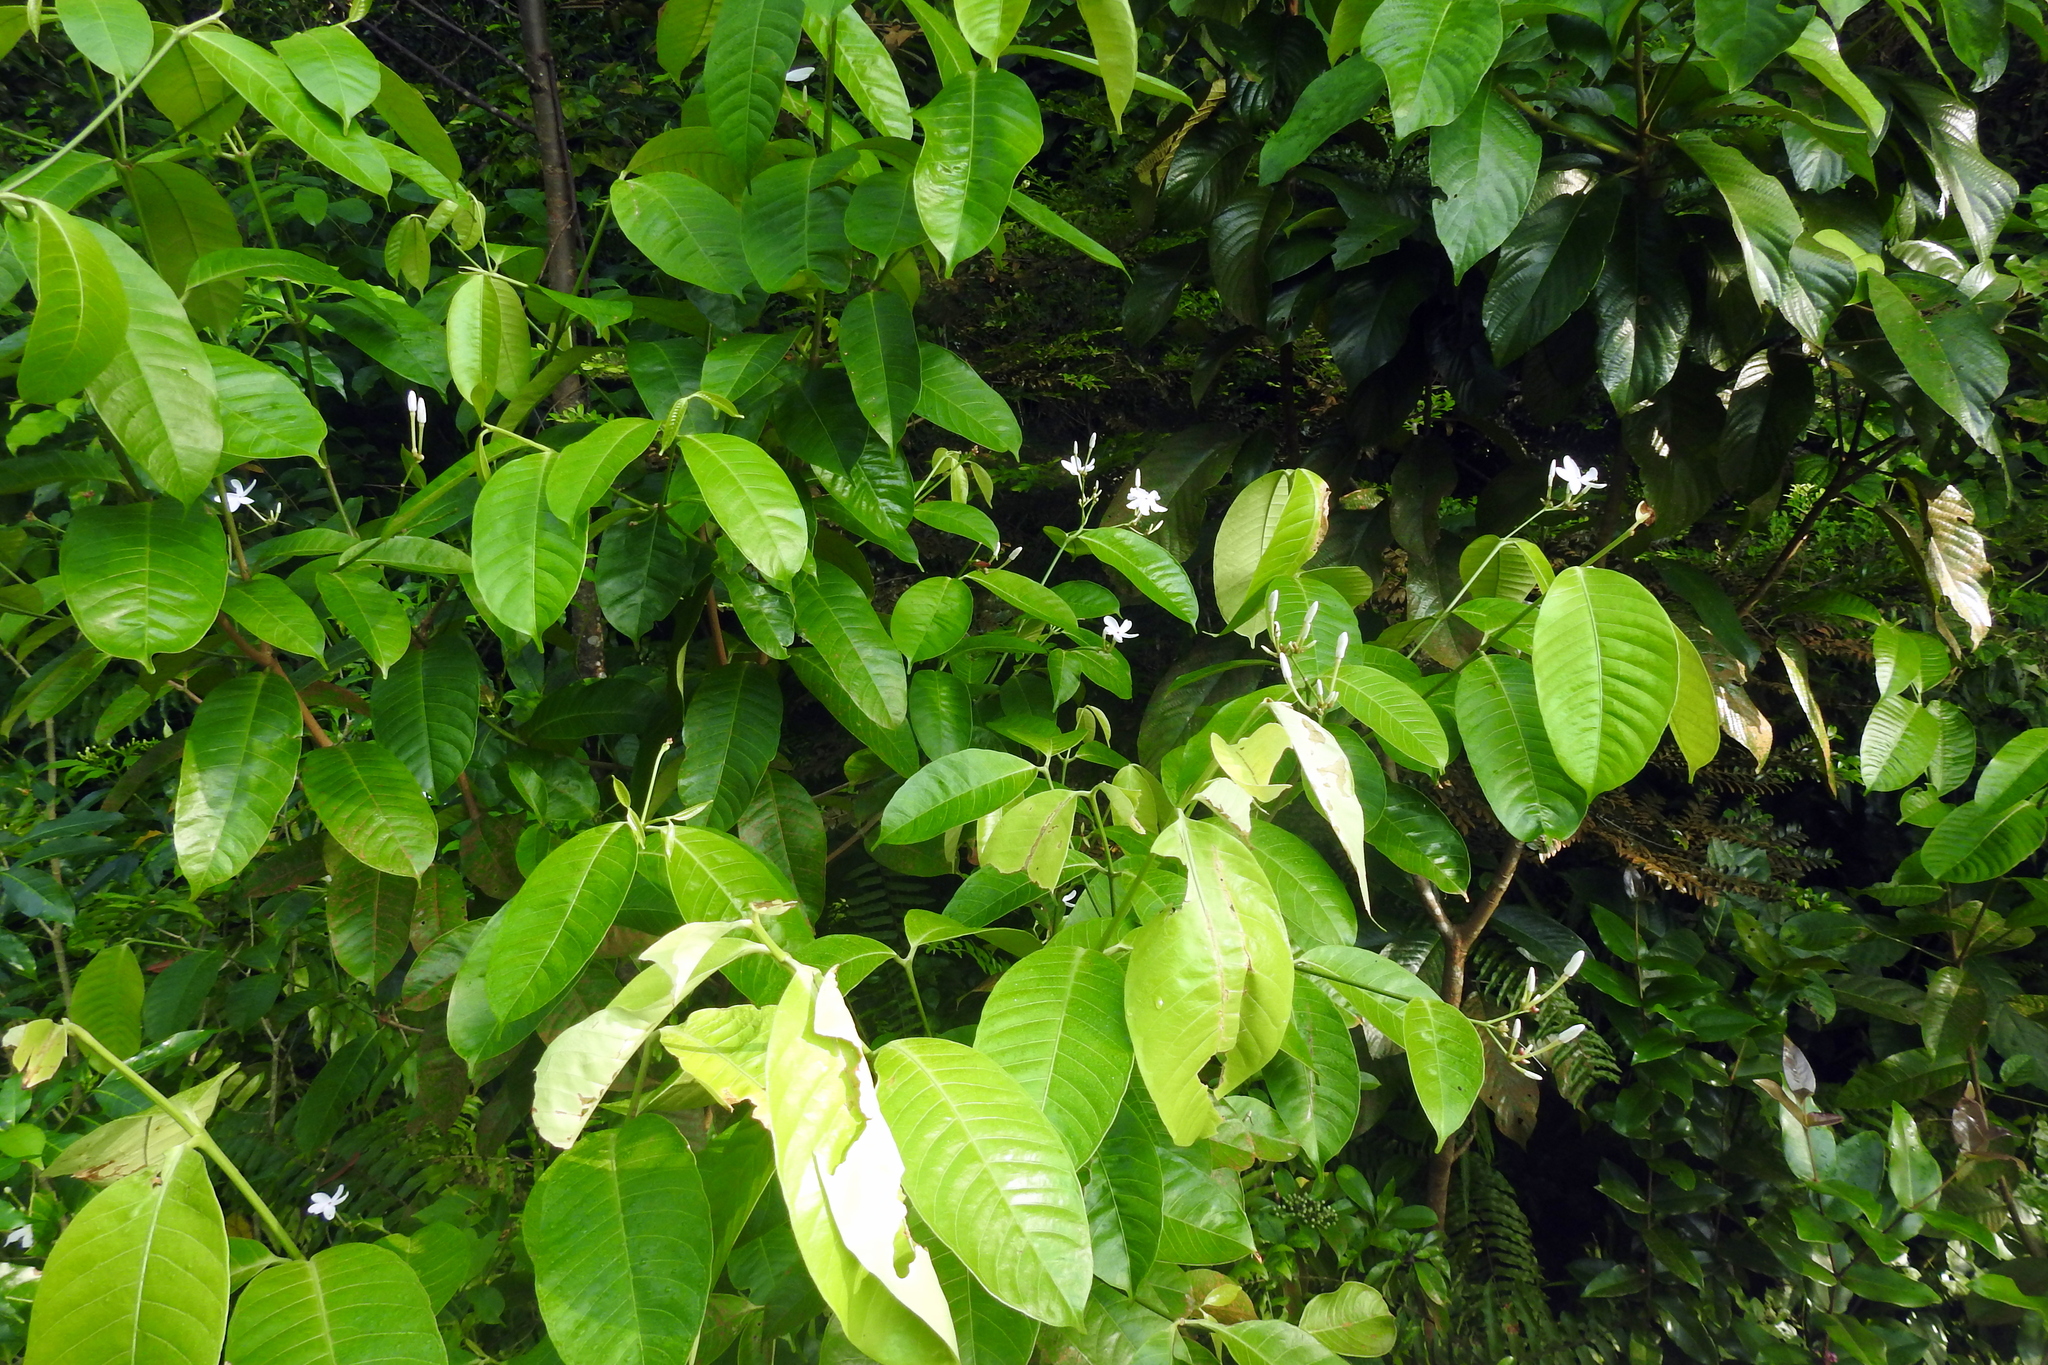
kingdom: Plantae
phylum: Tracheophyta
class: Magnoliopsida
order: Gentianales
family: Apocynaceae
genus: Kopsia
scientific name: Kopsia singapurensis
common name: White kopsia
